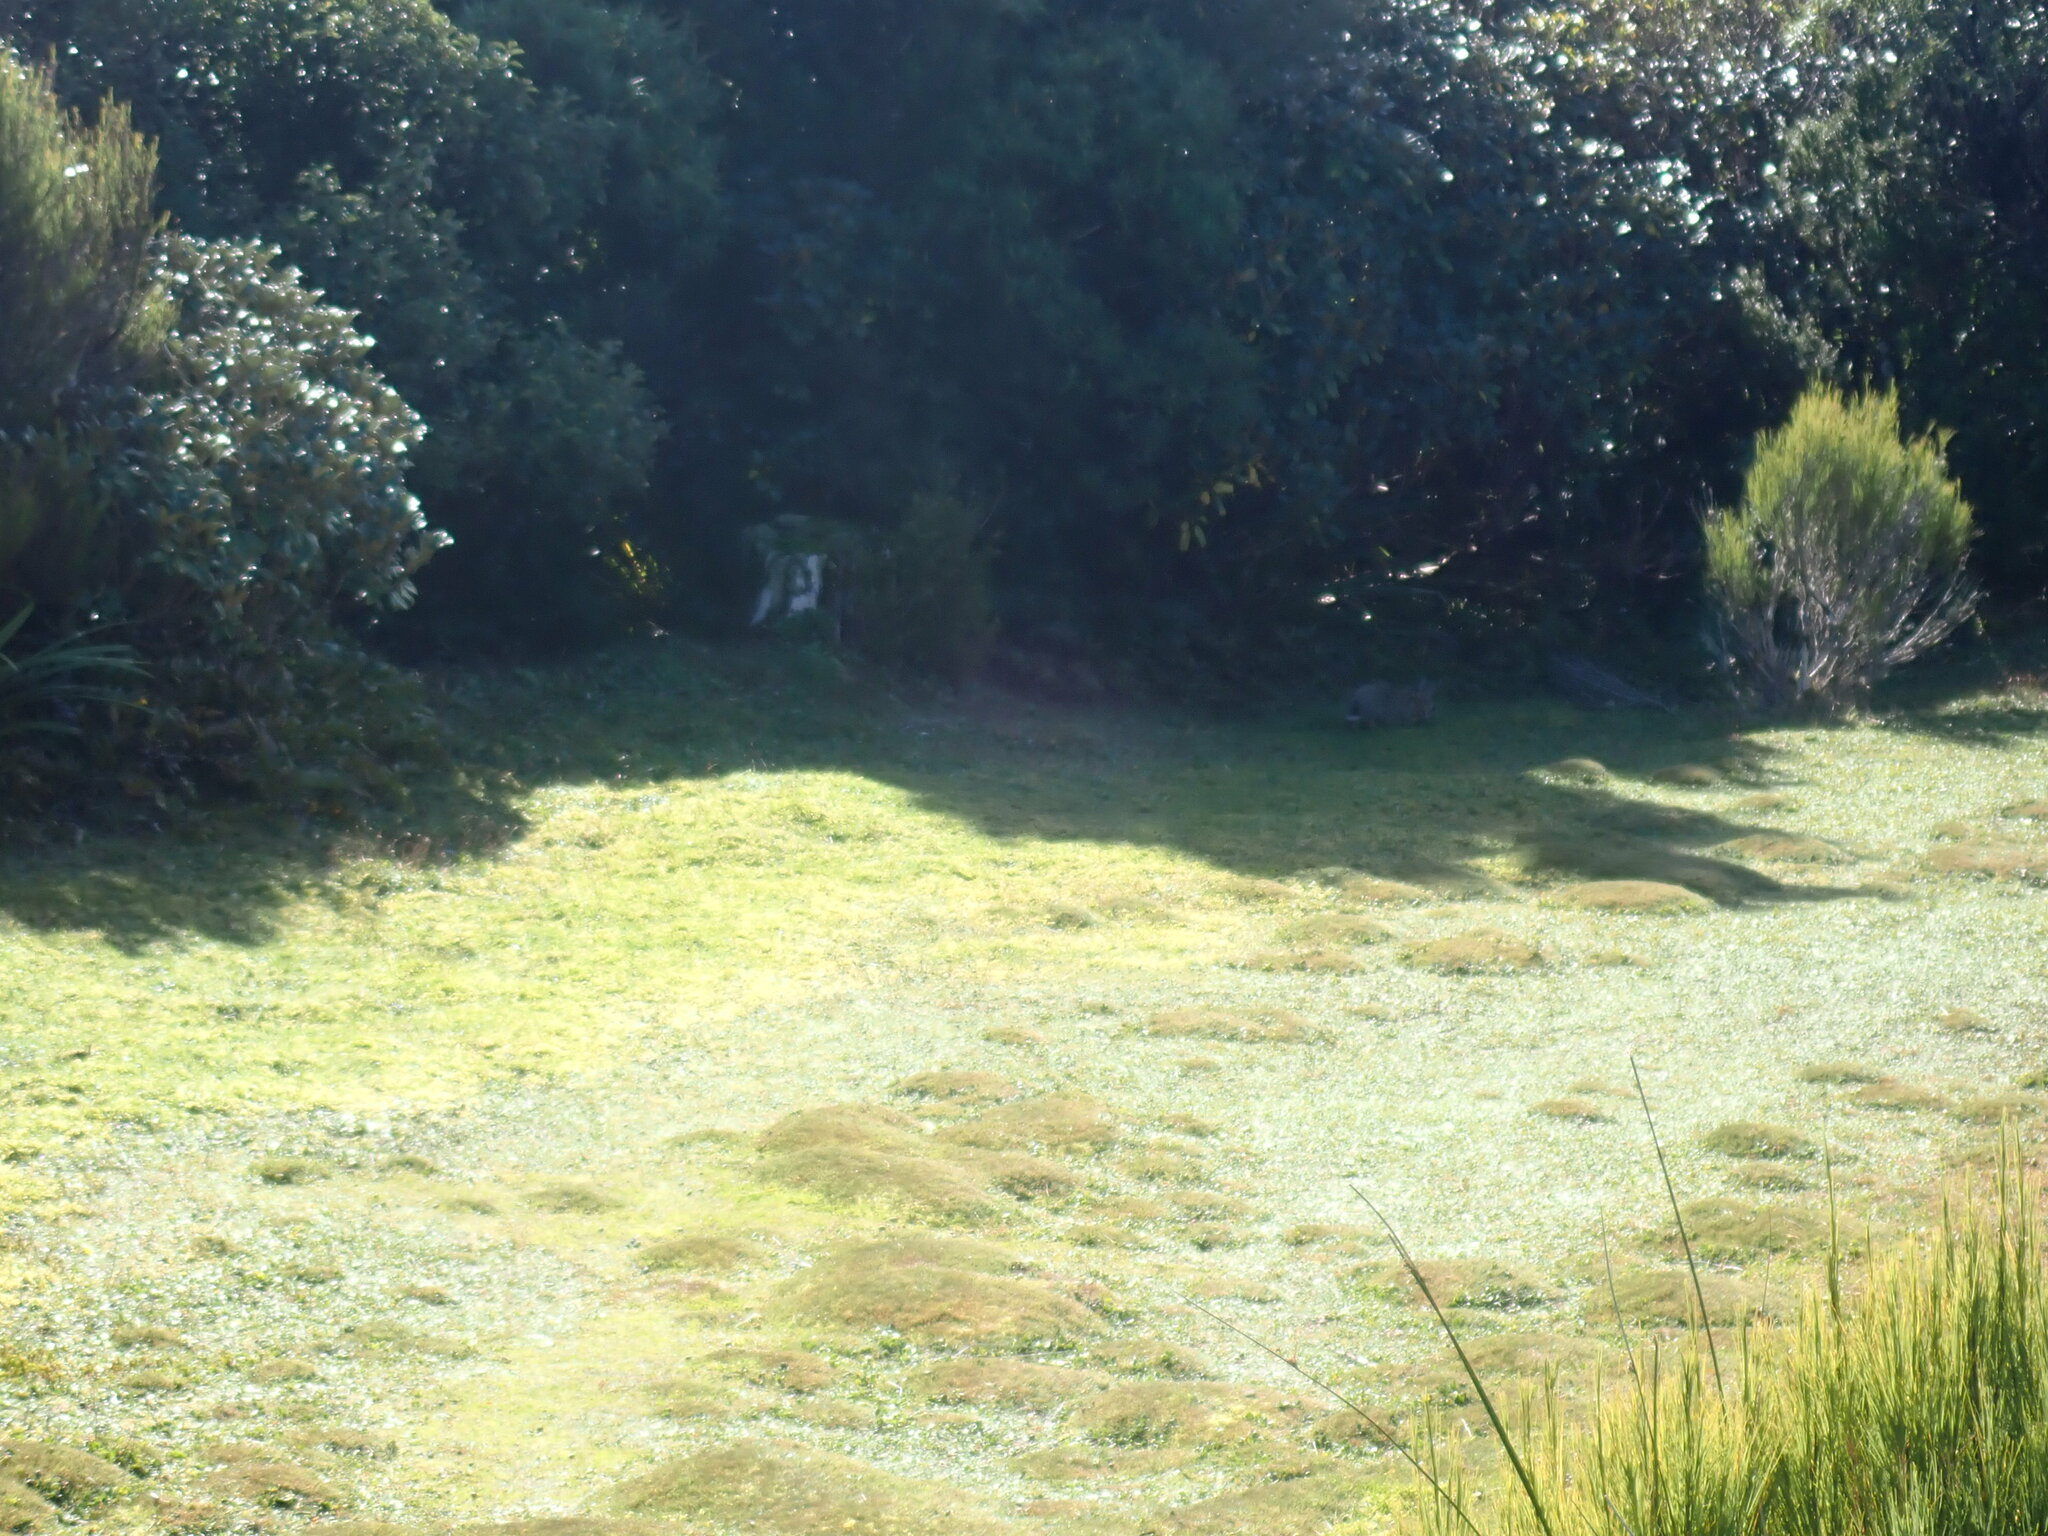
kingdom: Animalia
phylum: Chordata
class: Mammalia
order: Lagomorpha
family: Leporidae
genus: Oryctolagus
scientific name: Oryctolagus cuniculus
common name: European rabbit
